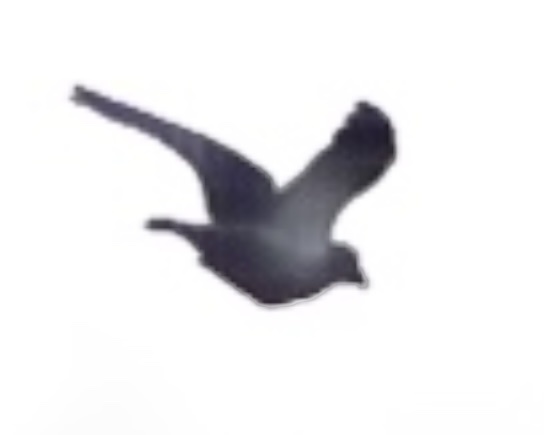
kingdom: Animalia
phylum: Chordata
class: Aves
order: Columbiformes
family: Columbidae
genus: Columba
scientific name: Columba livia
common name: Rock pigeon
